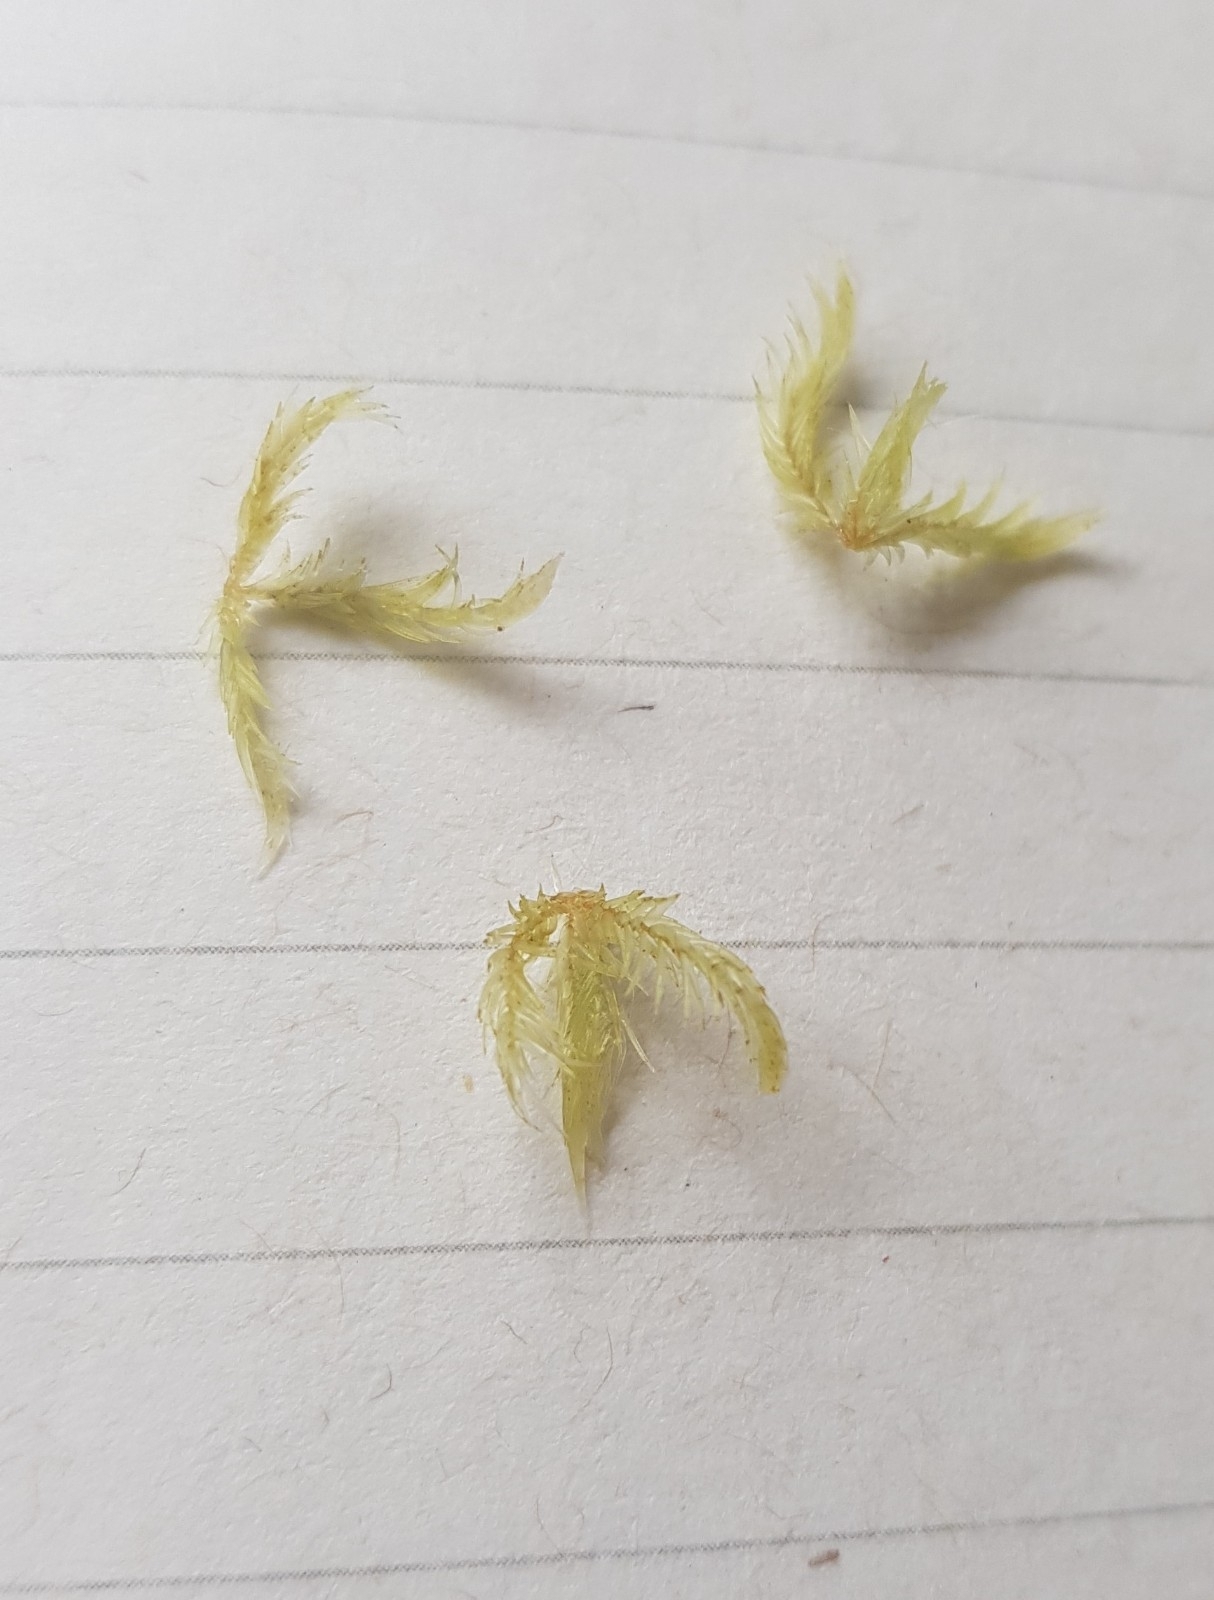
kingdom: Plantae
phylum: Bryophyta
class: Sphagnopsida
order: Sphagnales
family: Sphagnaceae
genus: Sphagnum
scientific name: Sphagnum cuspidatum
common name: Feathery peat moss
